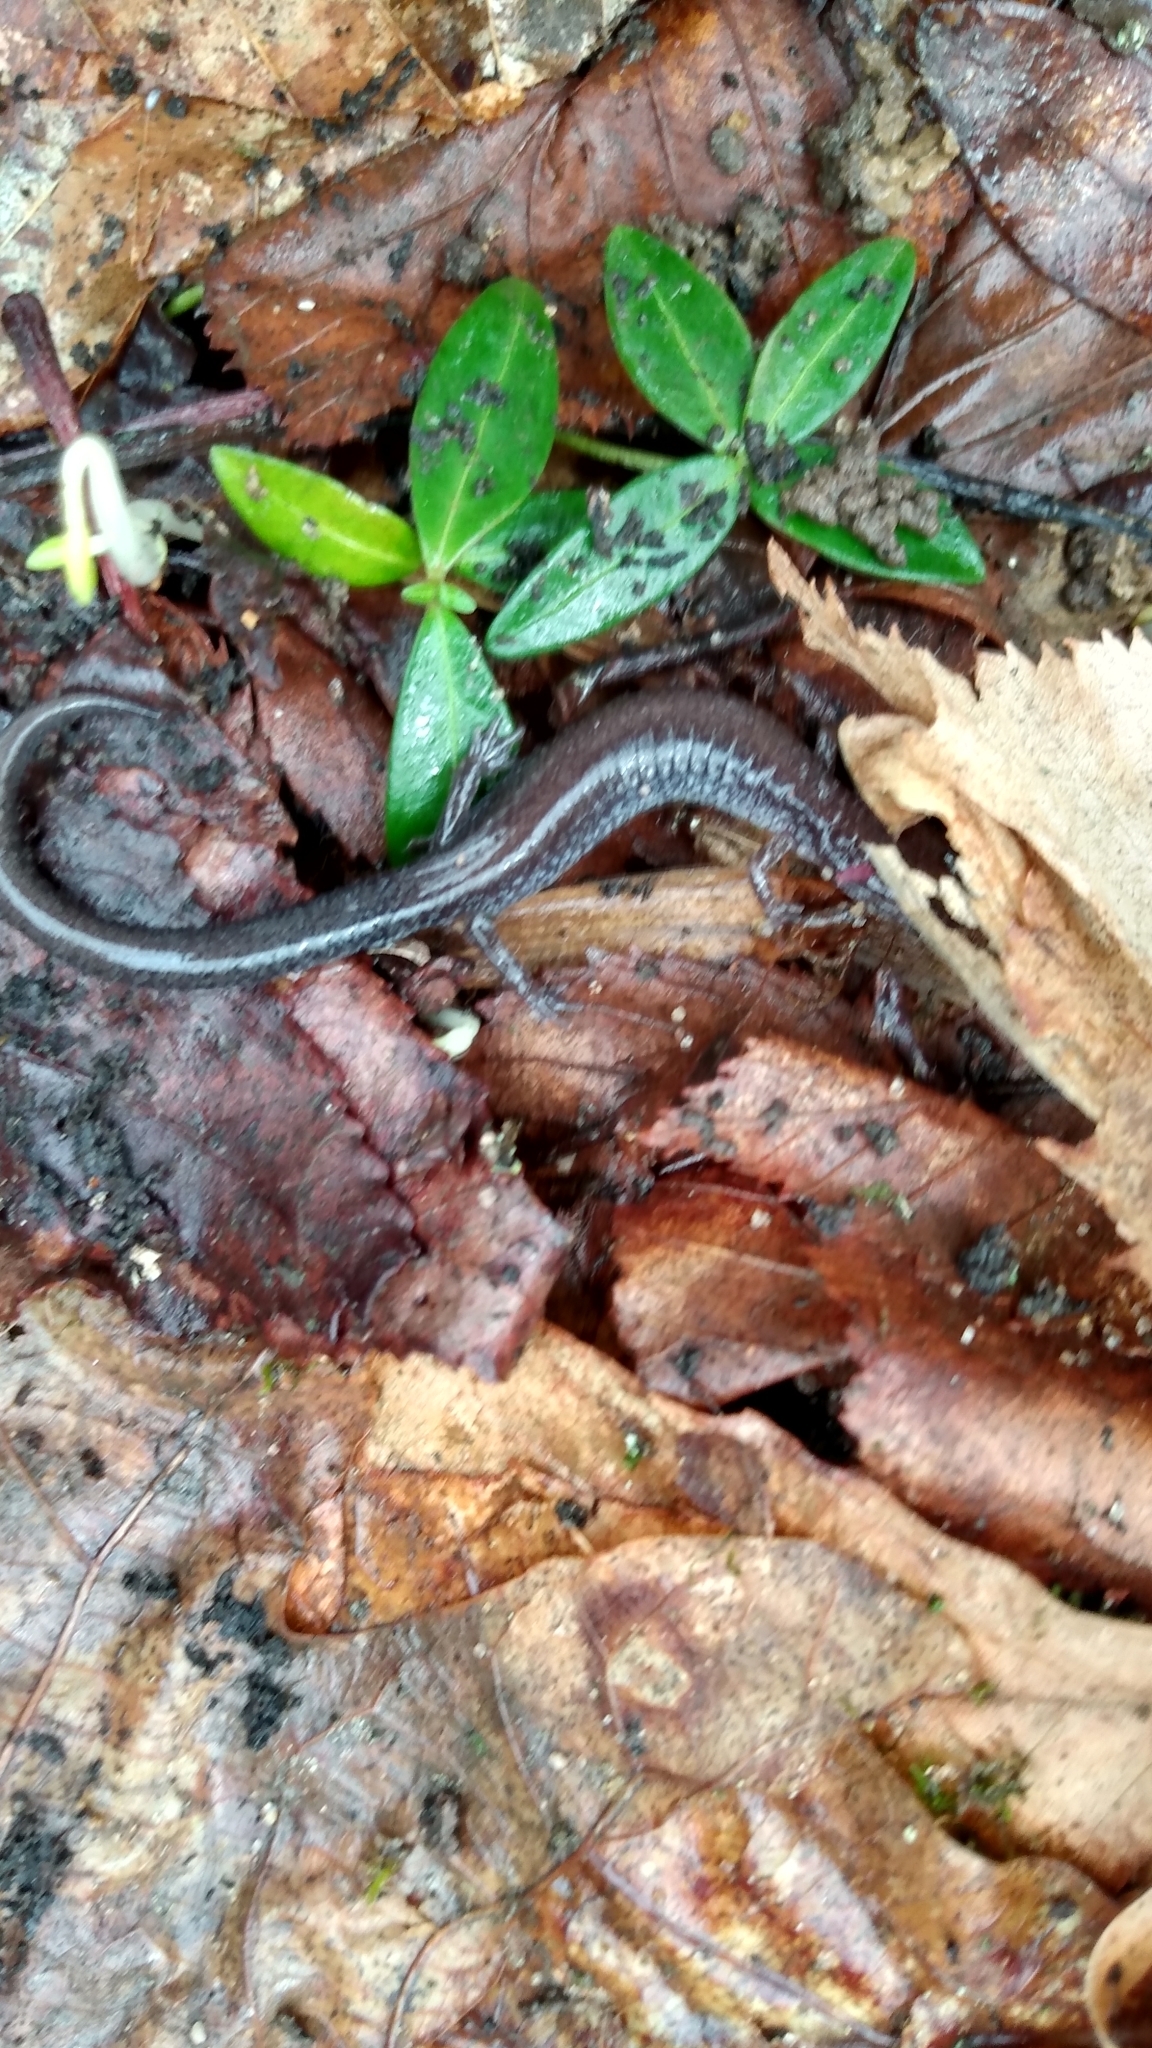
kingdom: Animalia
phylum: Chordata
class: Amphibia
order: Caudata
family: Plethodontidae
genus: Plethodon
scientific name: Plethodon cinereus
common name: Redback salamander
